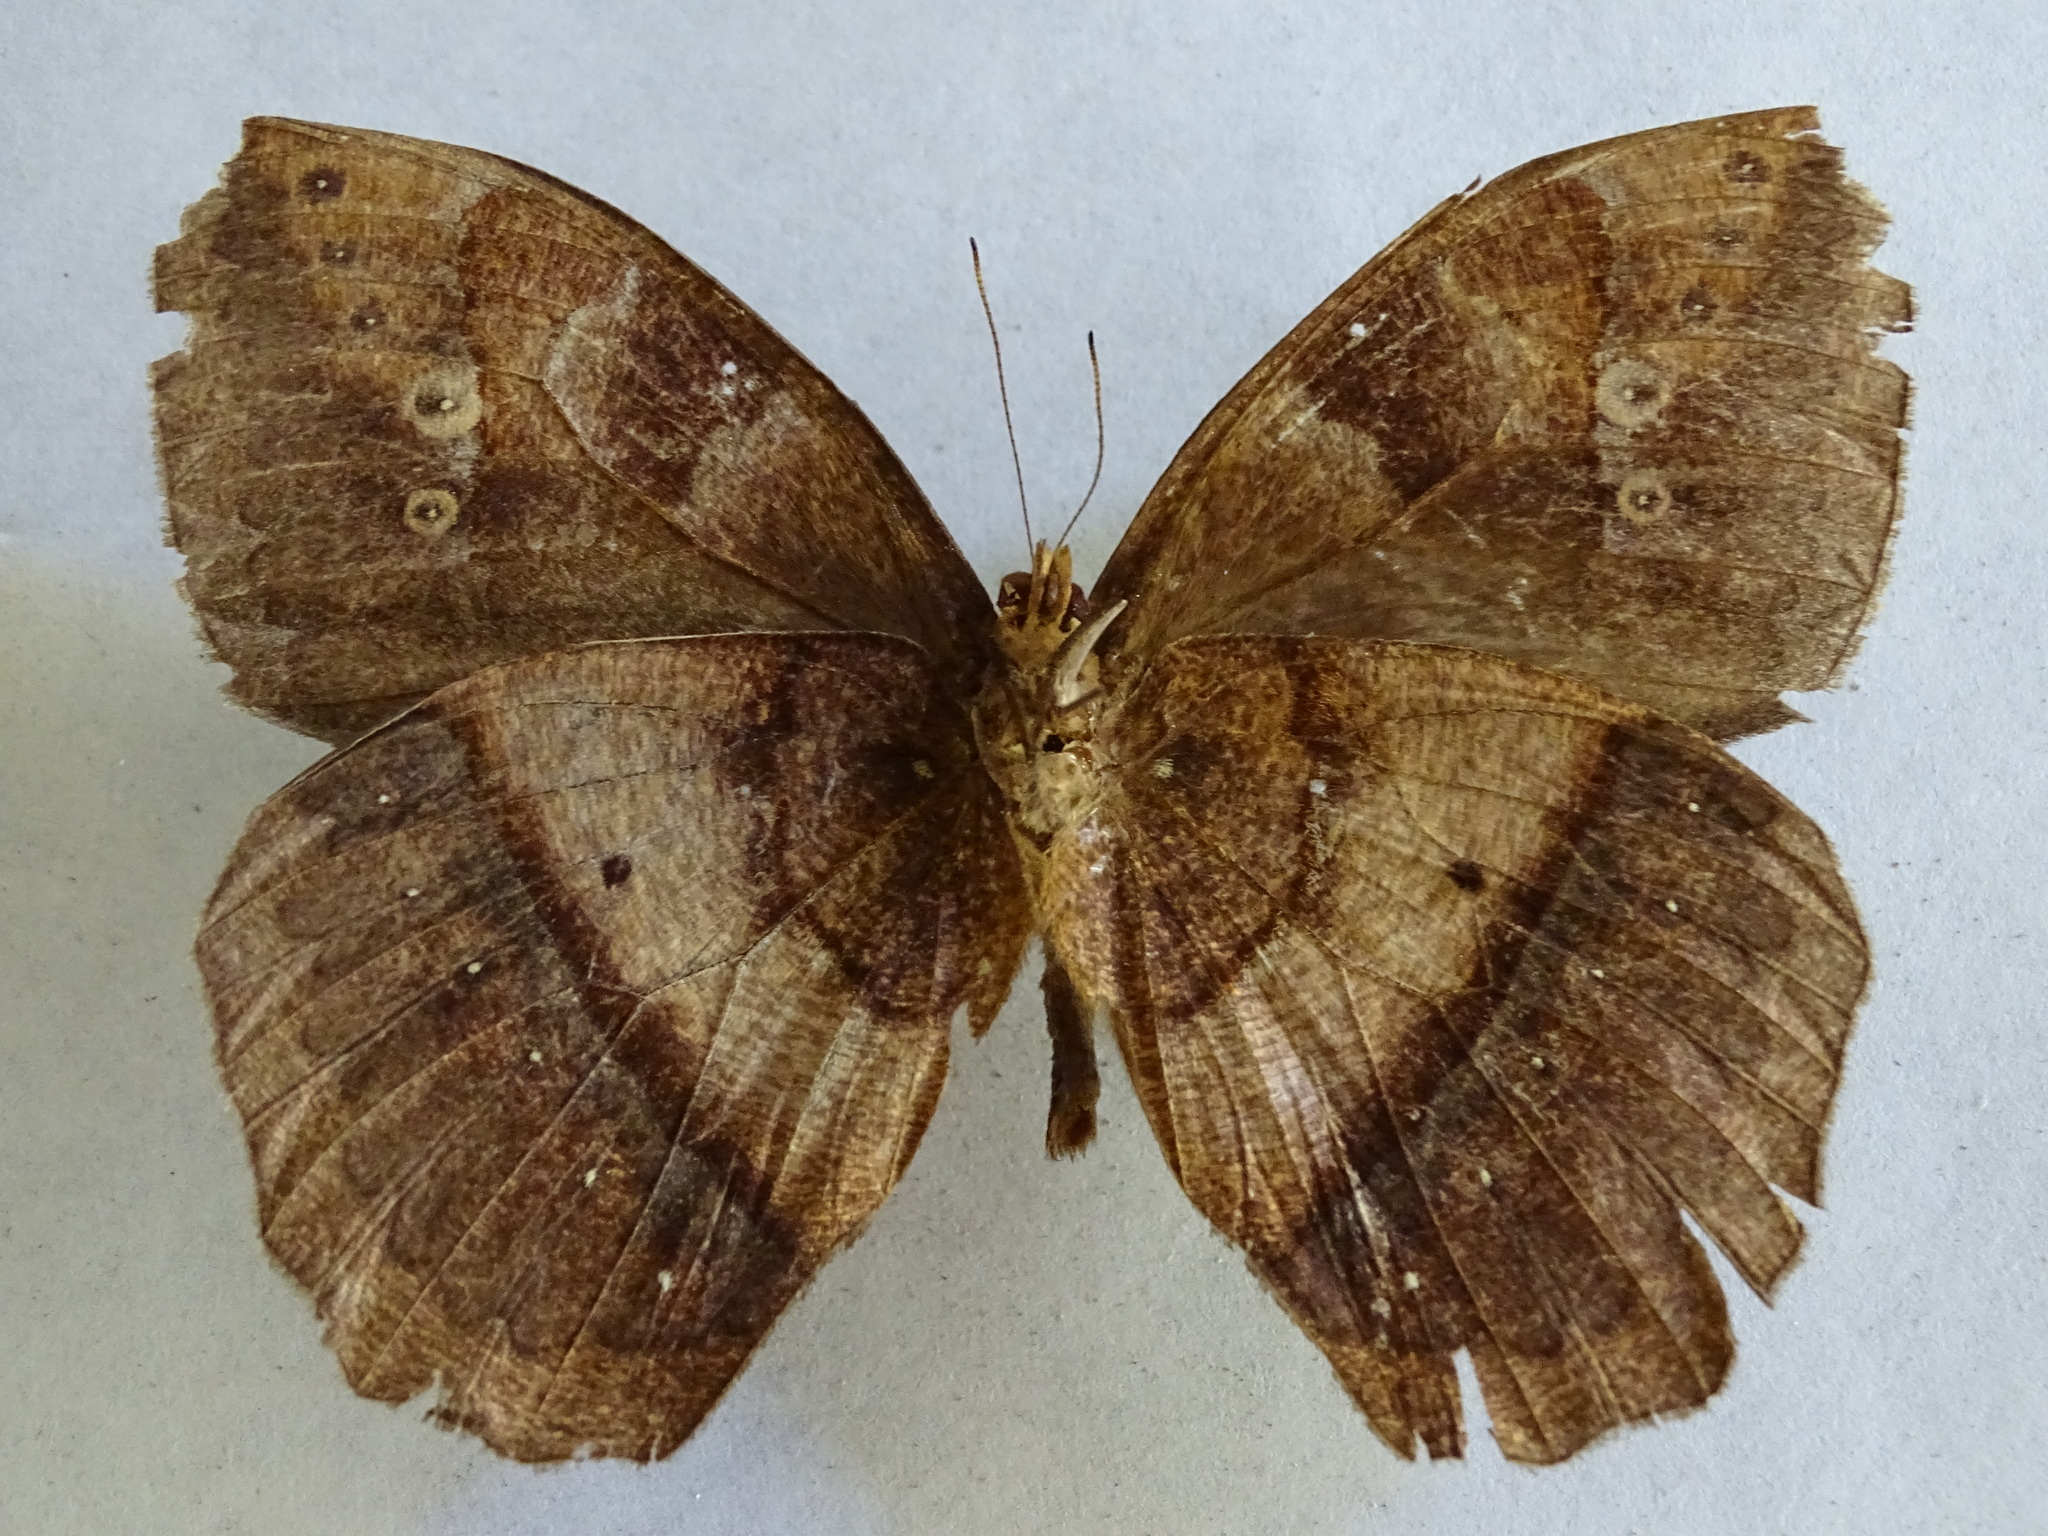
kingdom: Animalia
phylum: Arthropoda
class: Insecta
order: Lepidoptera
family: Nymphalidae
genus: Taygetis
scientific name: Taygetis mermeria
